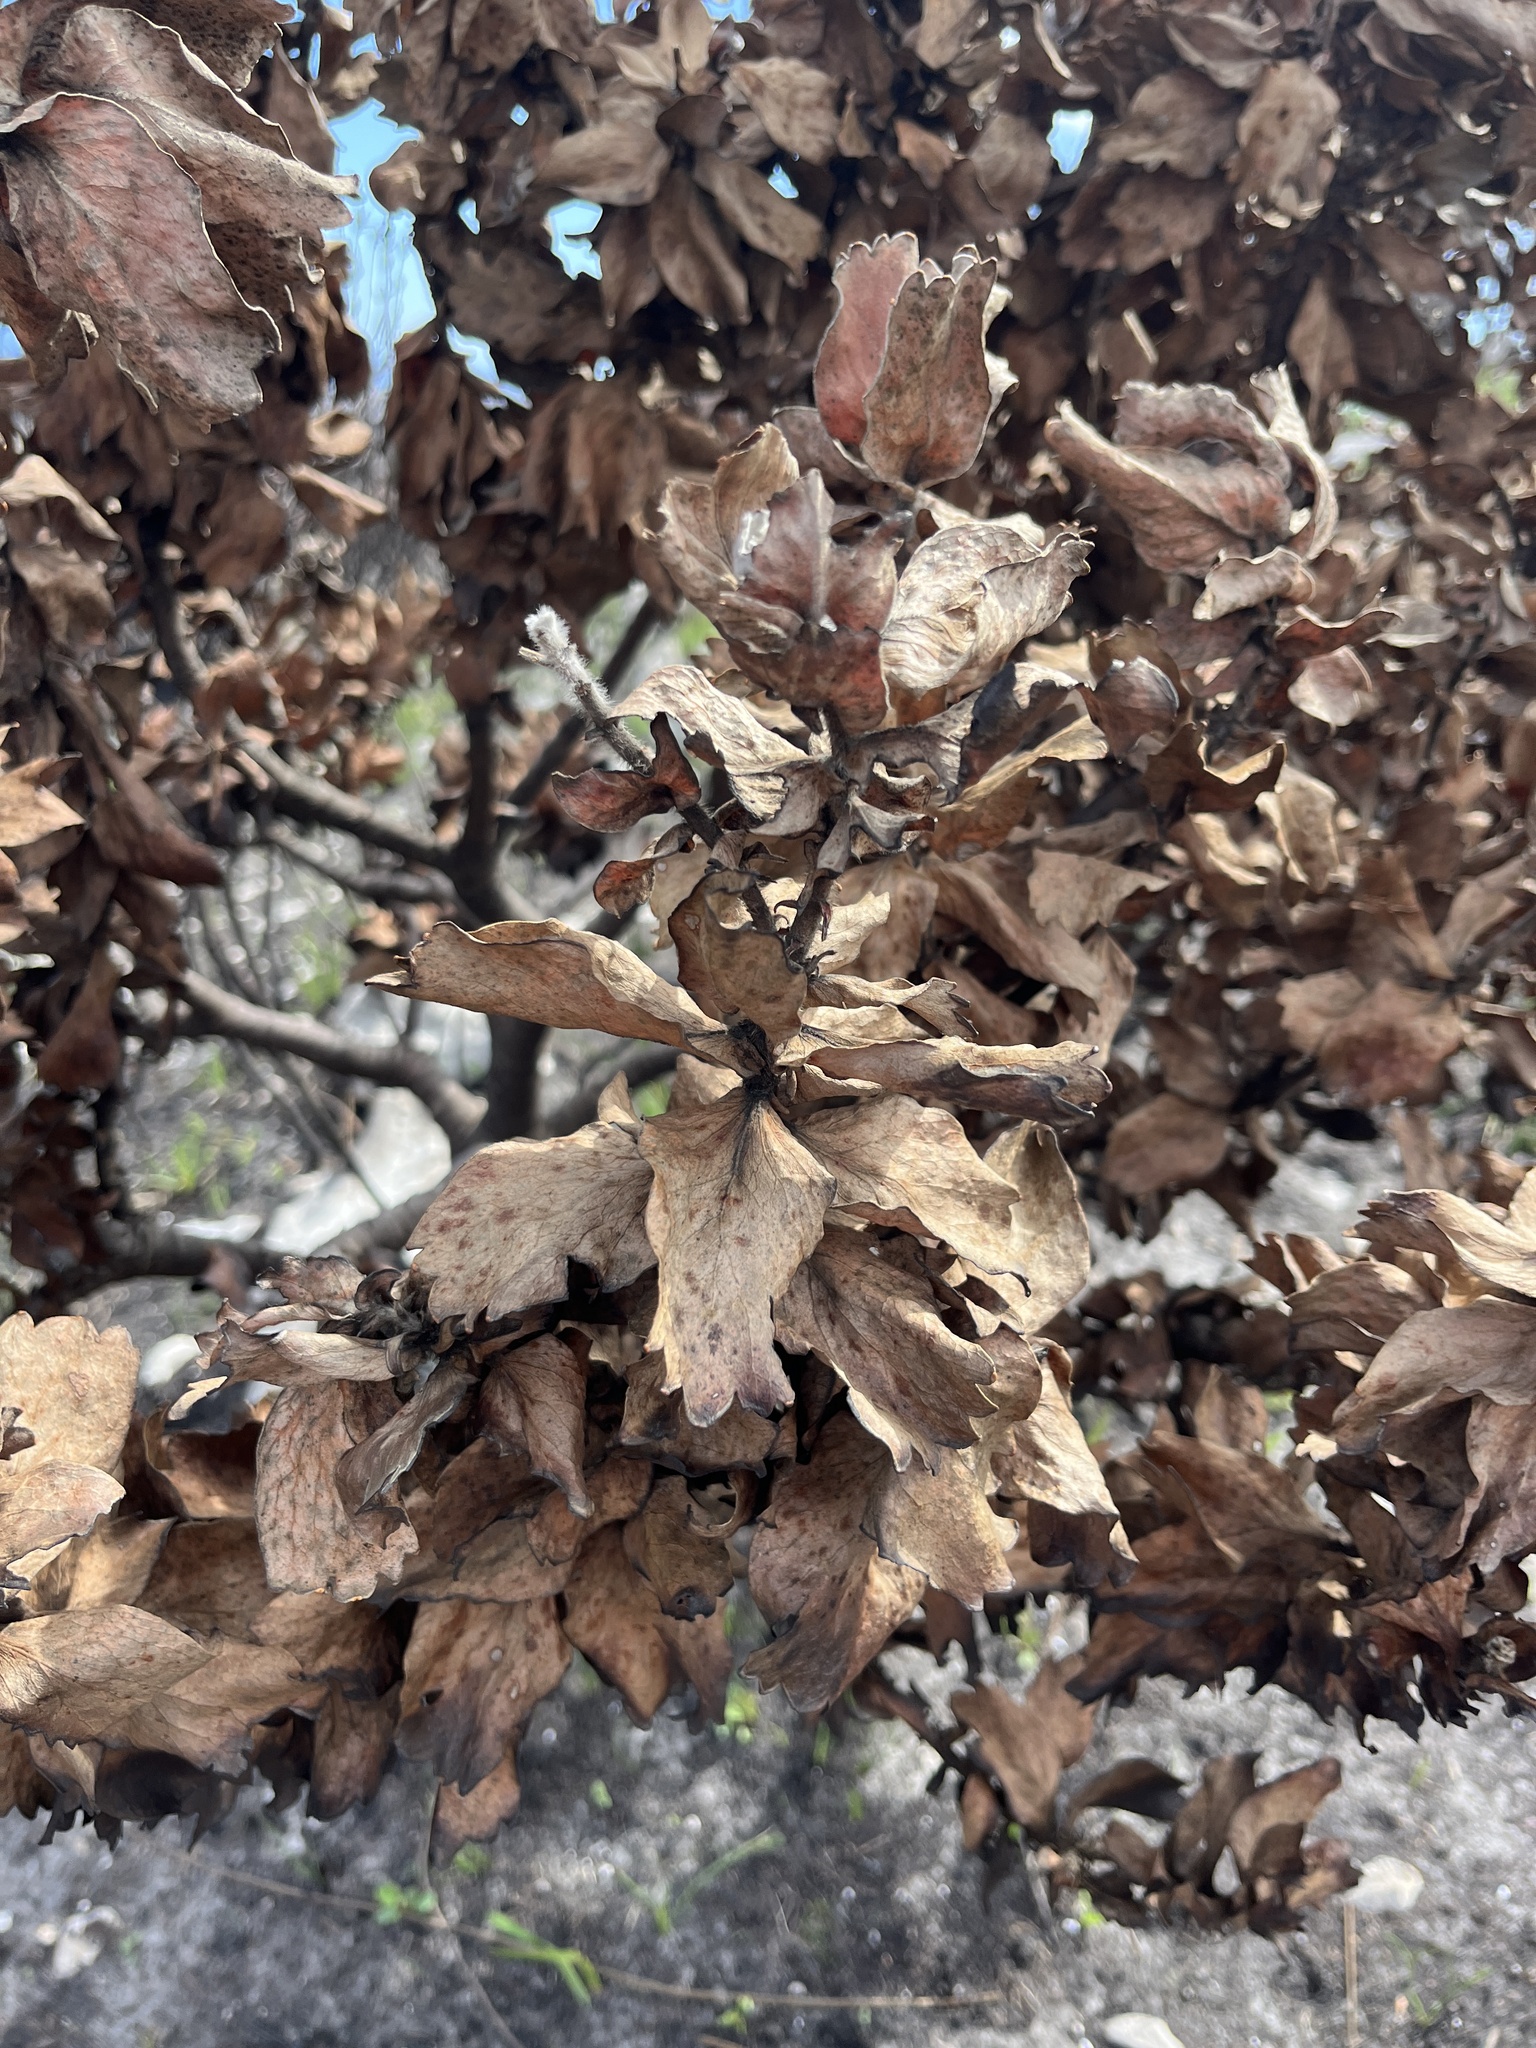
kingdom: Plantae
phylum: Tracheophyta
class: Magnoliopsida
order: Proteales
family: Proteaceae
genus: Leucospermum
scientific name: Leucospermum patersonii
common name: False tree pincushion
